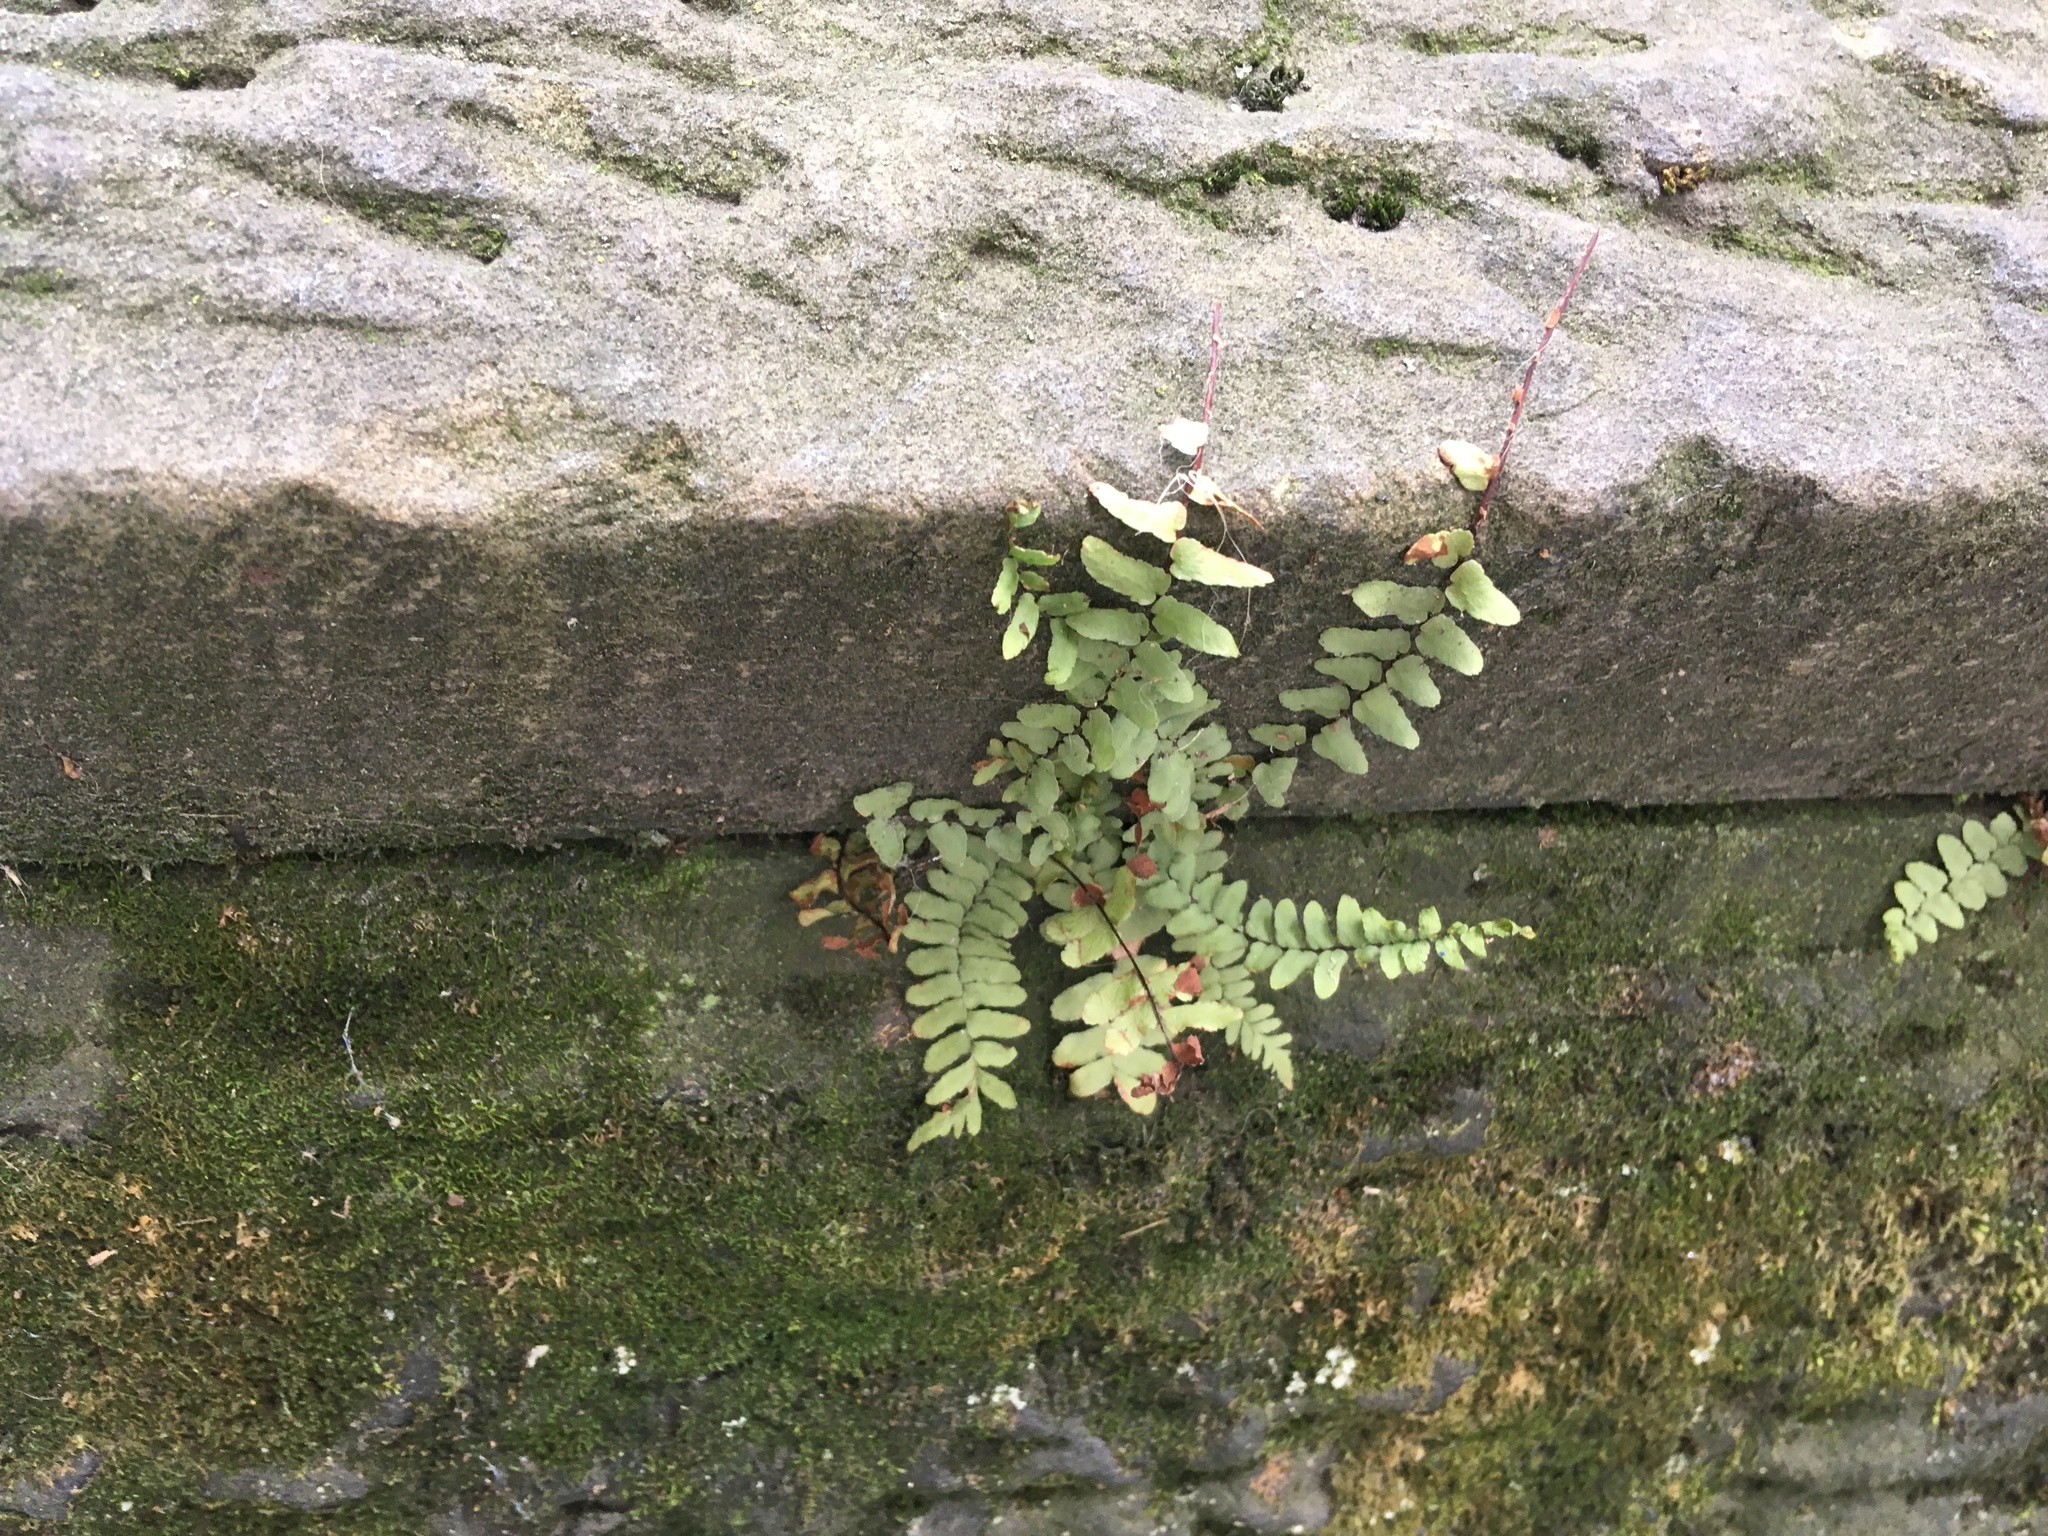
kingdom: Plantae
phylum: Tracheophyta
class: Polypodiopsida
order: Polypodiales
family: Aspleniaceae
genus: Asplenium
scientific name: Asplenium platyneuron
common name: Ebony spleenwort
